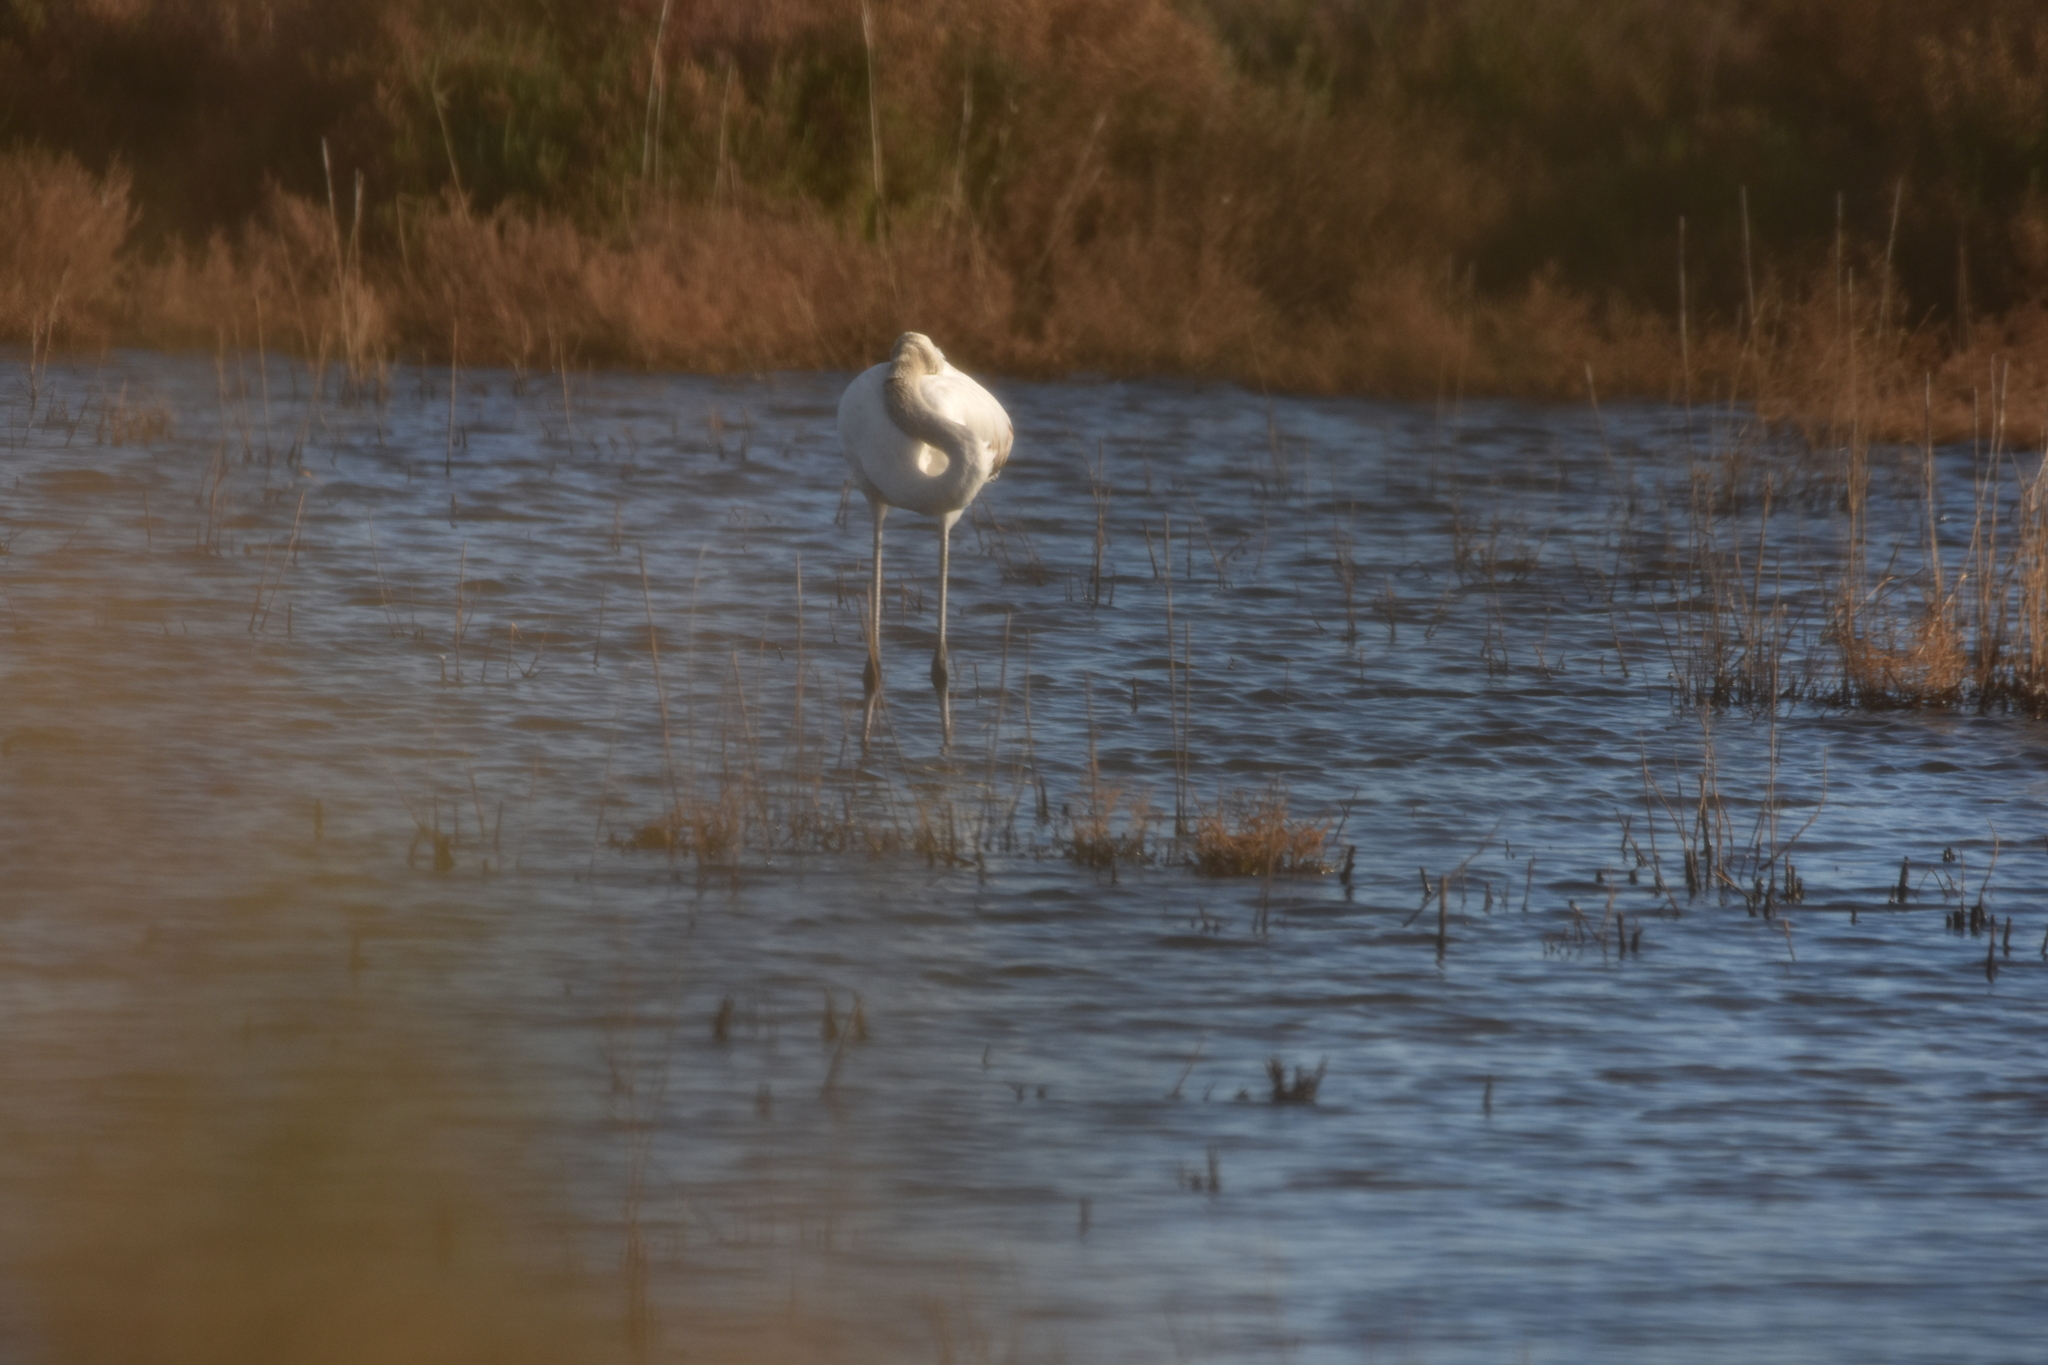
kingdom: Animalia
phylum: Chordata
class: Aves
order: Phoenicopteriformes
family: Phoenicopteridae
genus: Phoenicopterus
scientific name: Phoenicopterus roseus
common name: Greater flamingo
